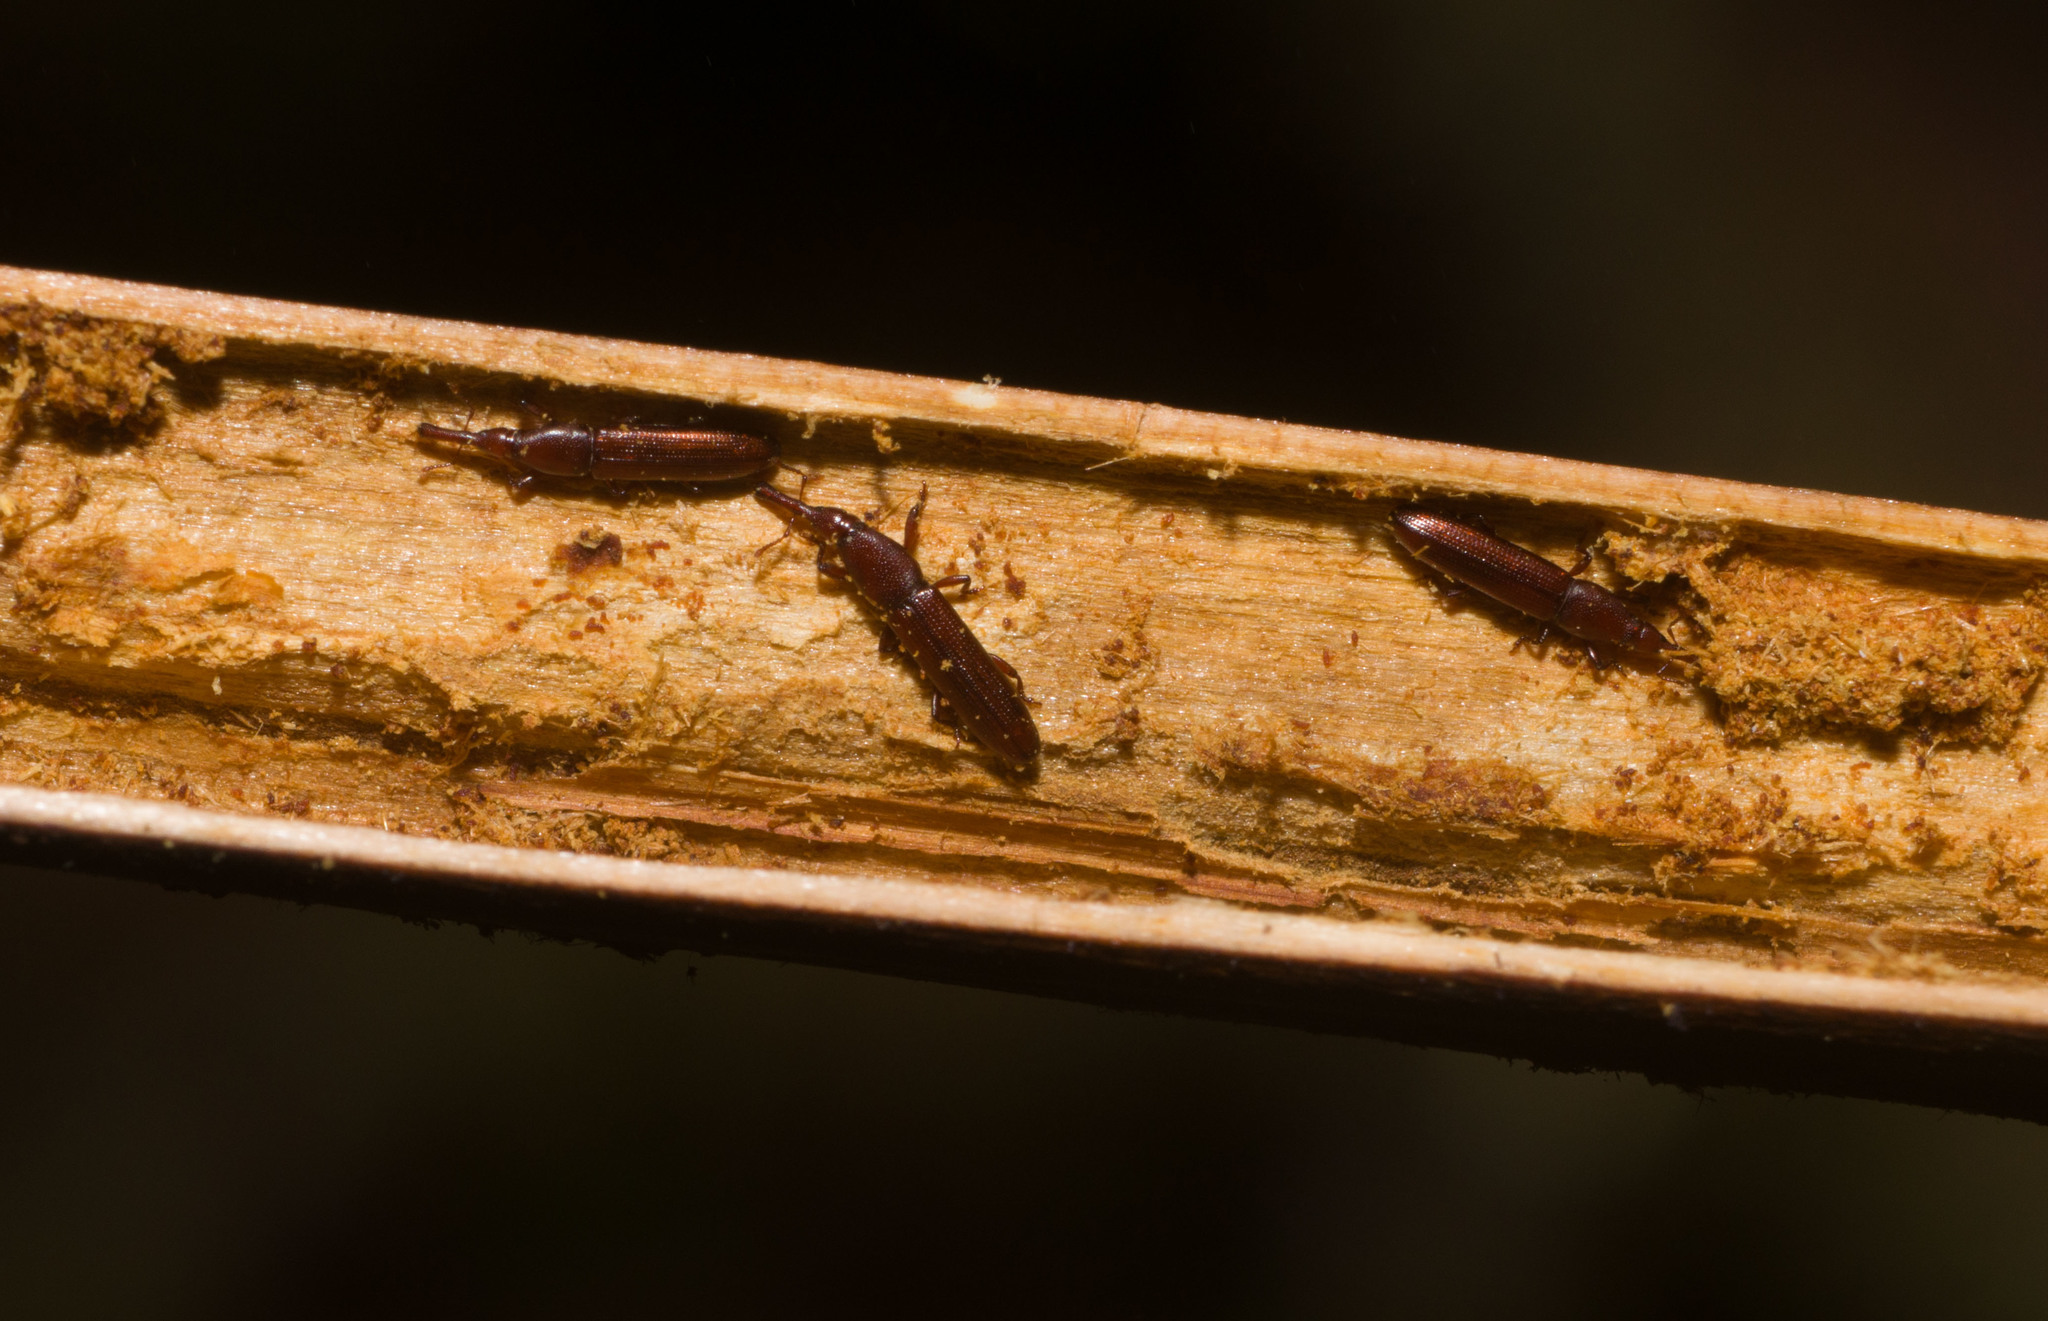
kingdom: Animalia
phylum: Arthropoda
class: Insecta
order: Coleoptera
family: Curculionidae
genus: Stenotrupis
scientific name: Stenotrupis prolixa
